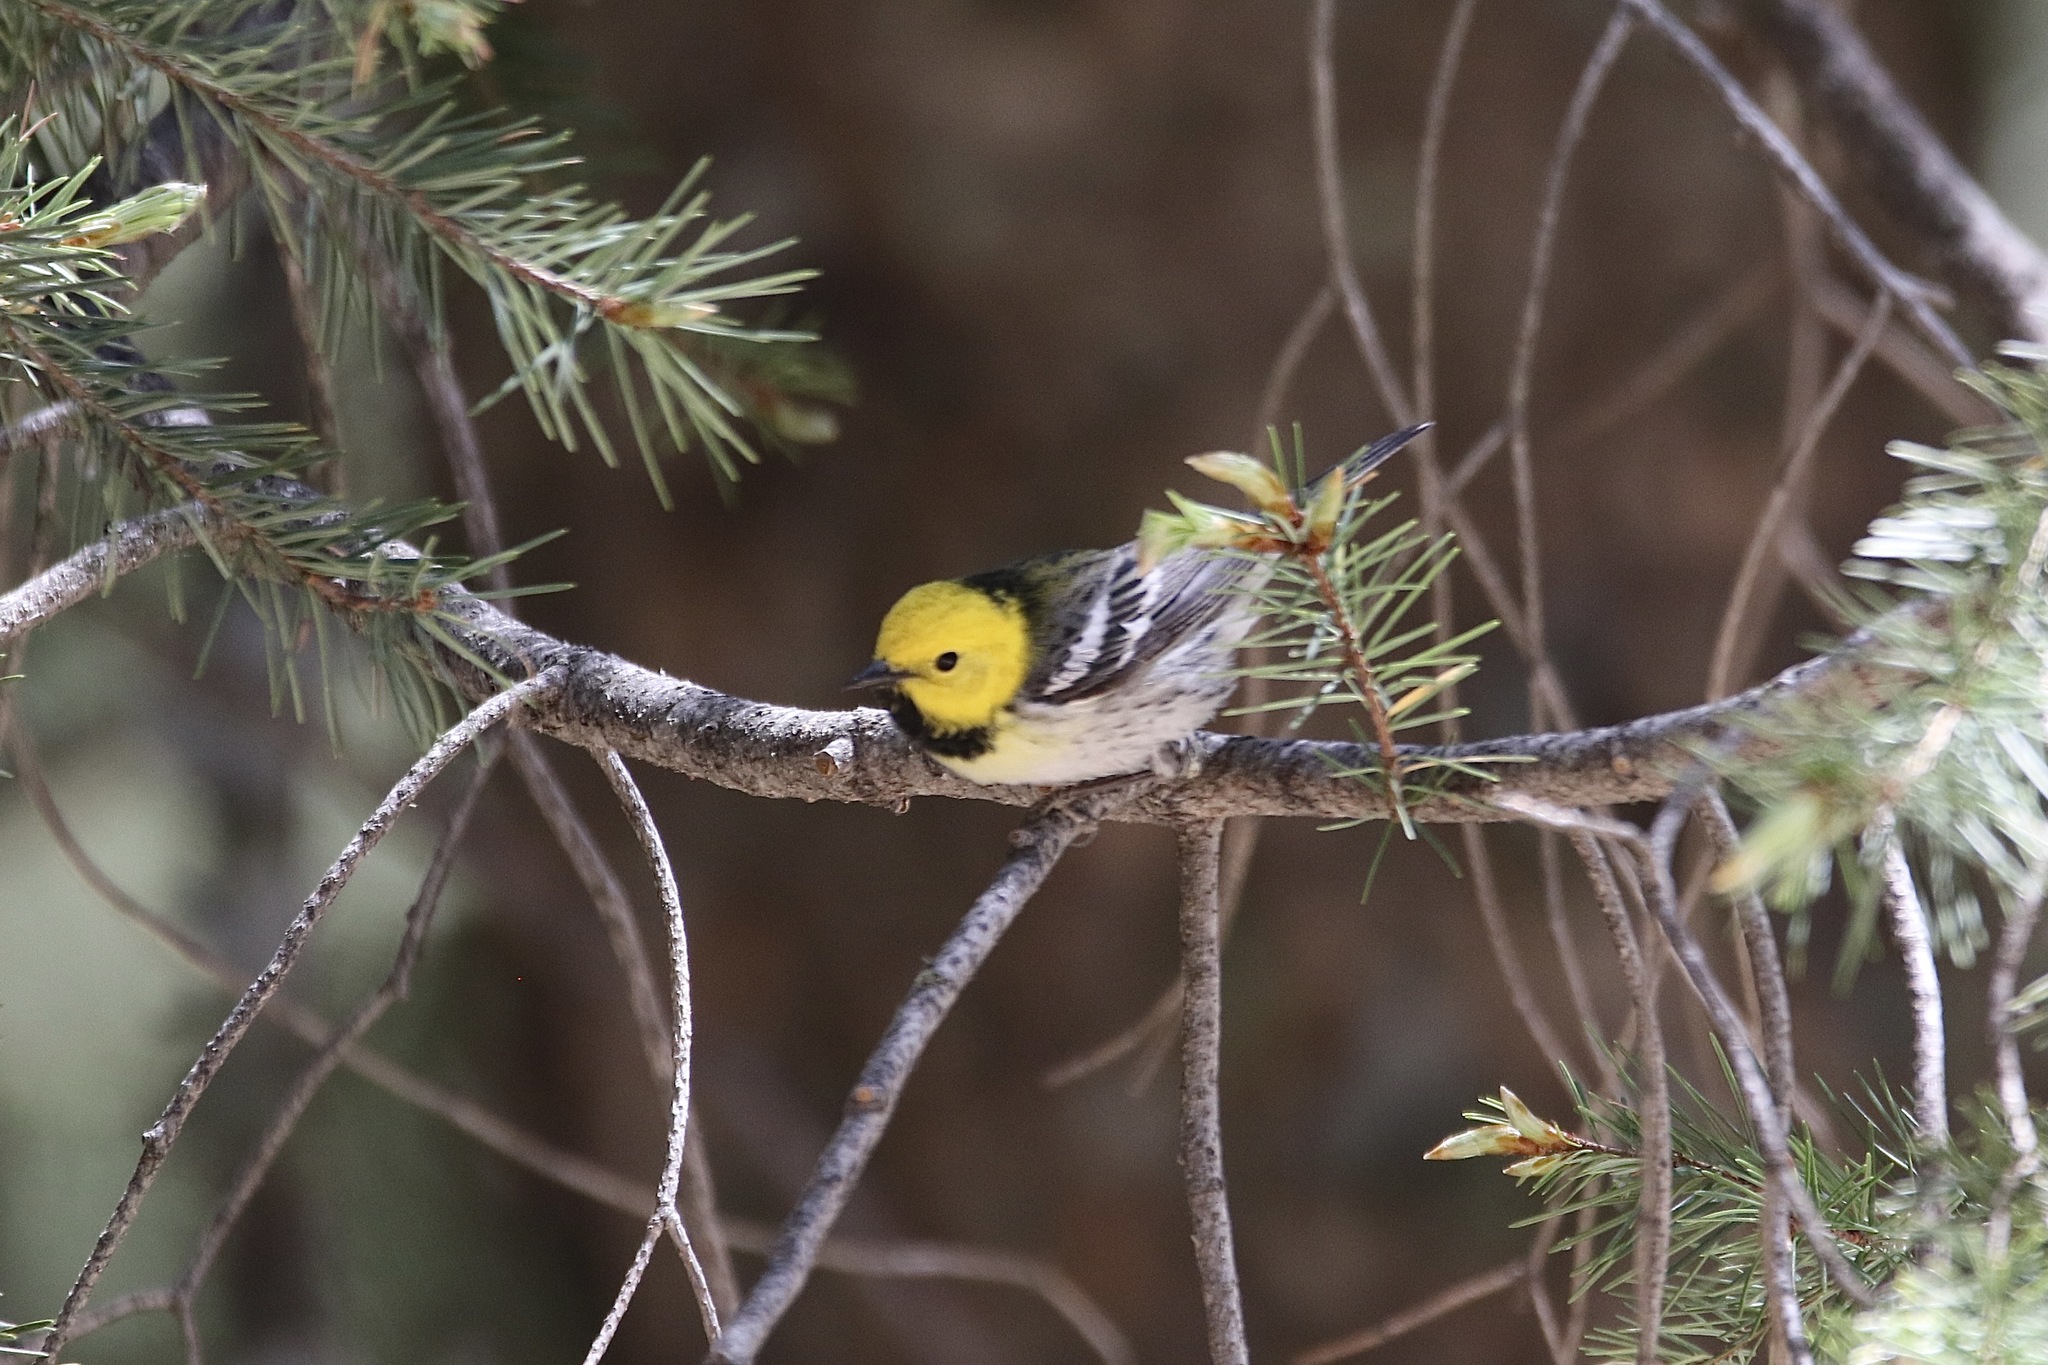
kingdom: Animalia
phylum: Chordata
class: Aves
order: Passeriformes
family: Parulidae
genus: Setophaga
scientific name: Setophaga
